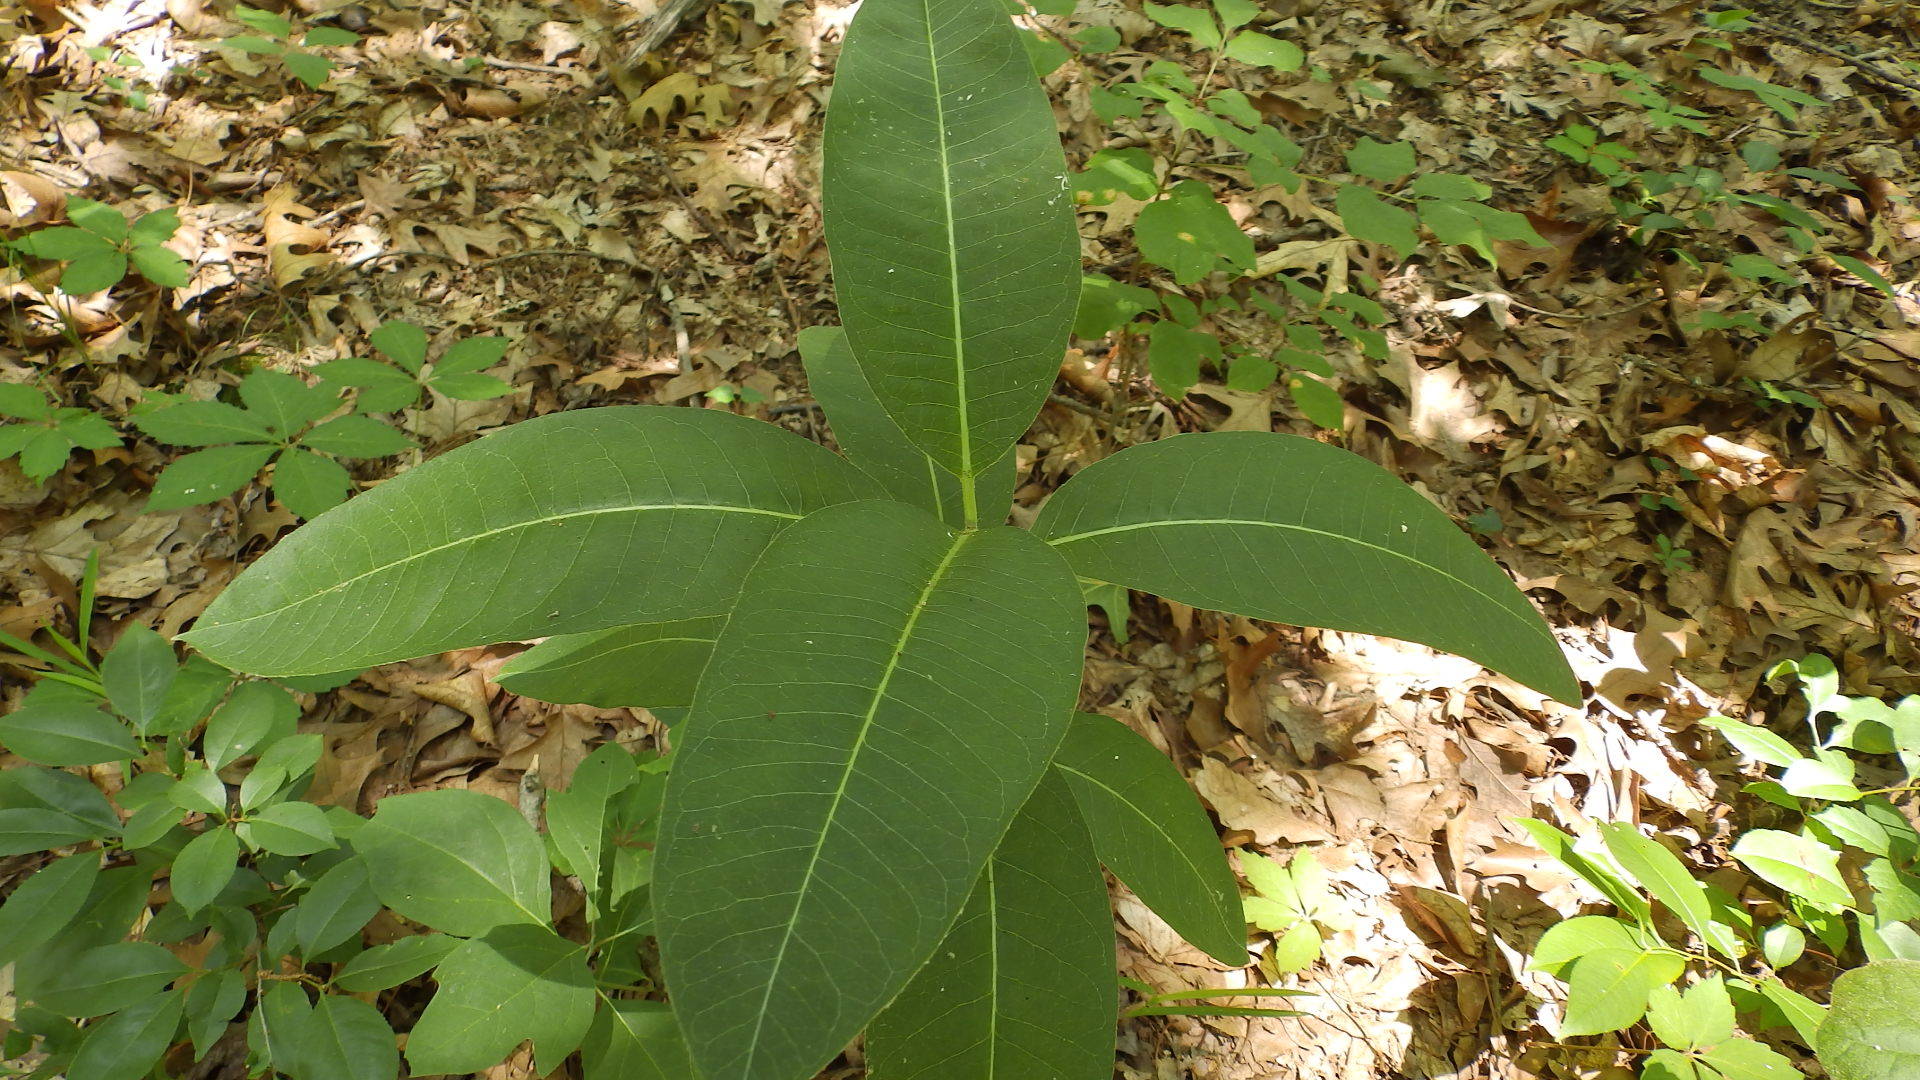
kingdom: Plantae
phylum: Tracheophyta
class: Magnoliopsida
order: Gentianales
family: Apocynaceae
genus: Asclepias
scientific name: Asclepias syriaca
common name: Common milkweed
